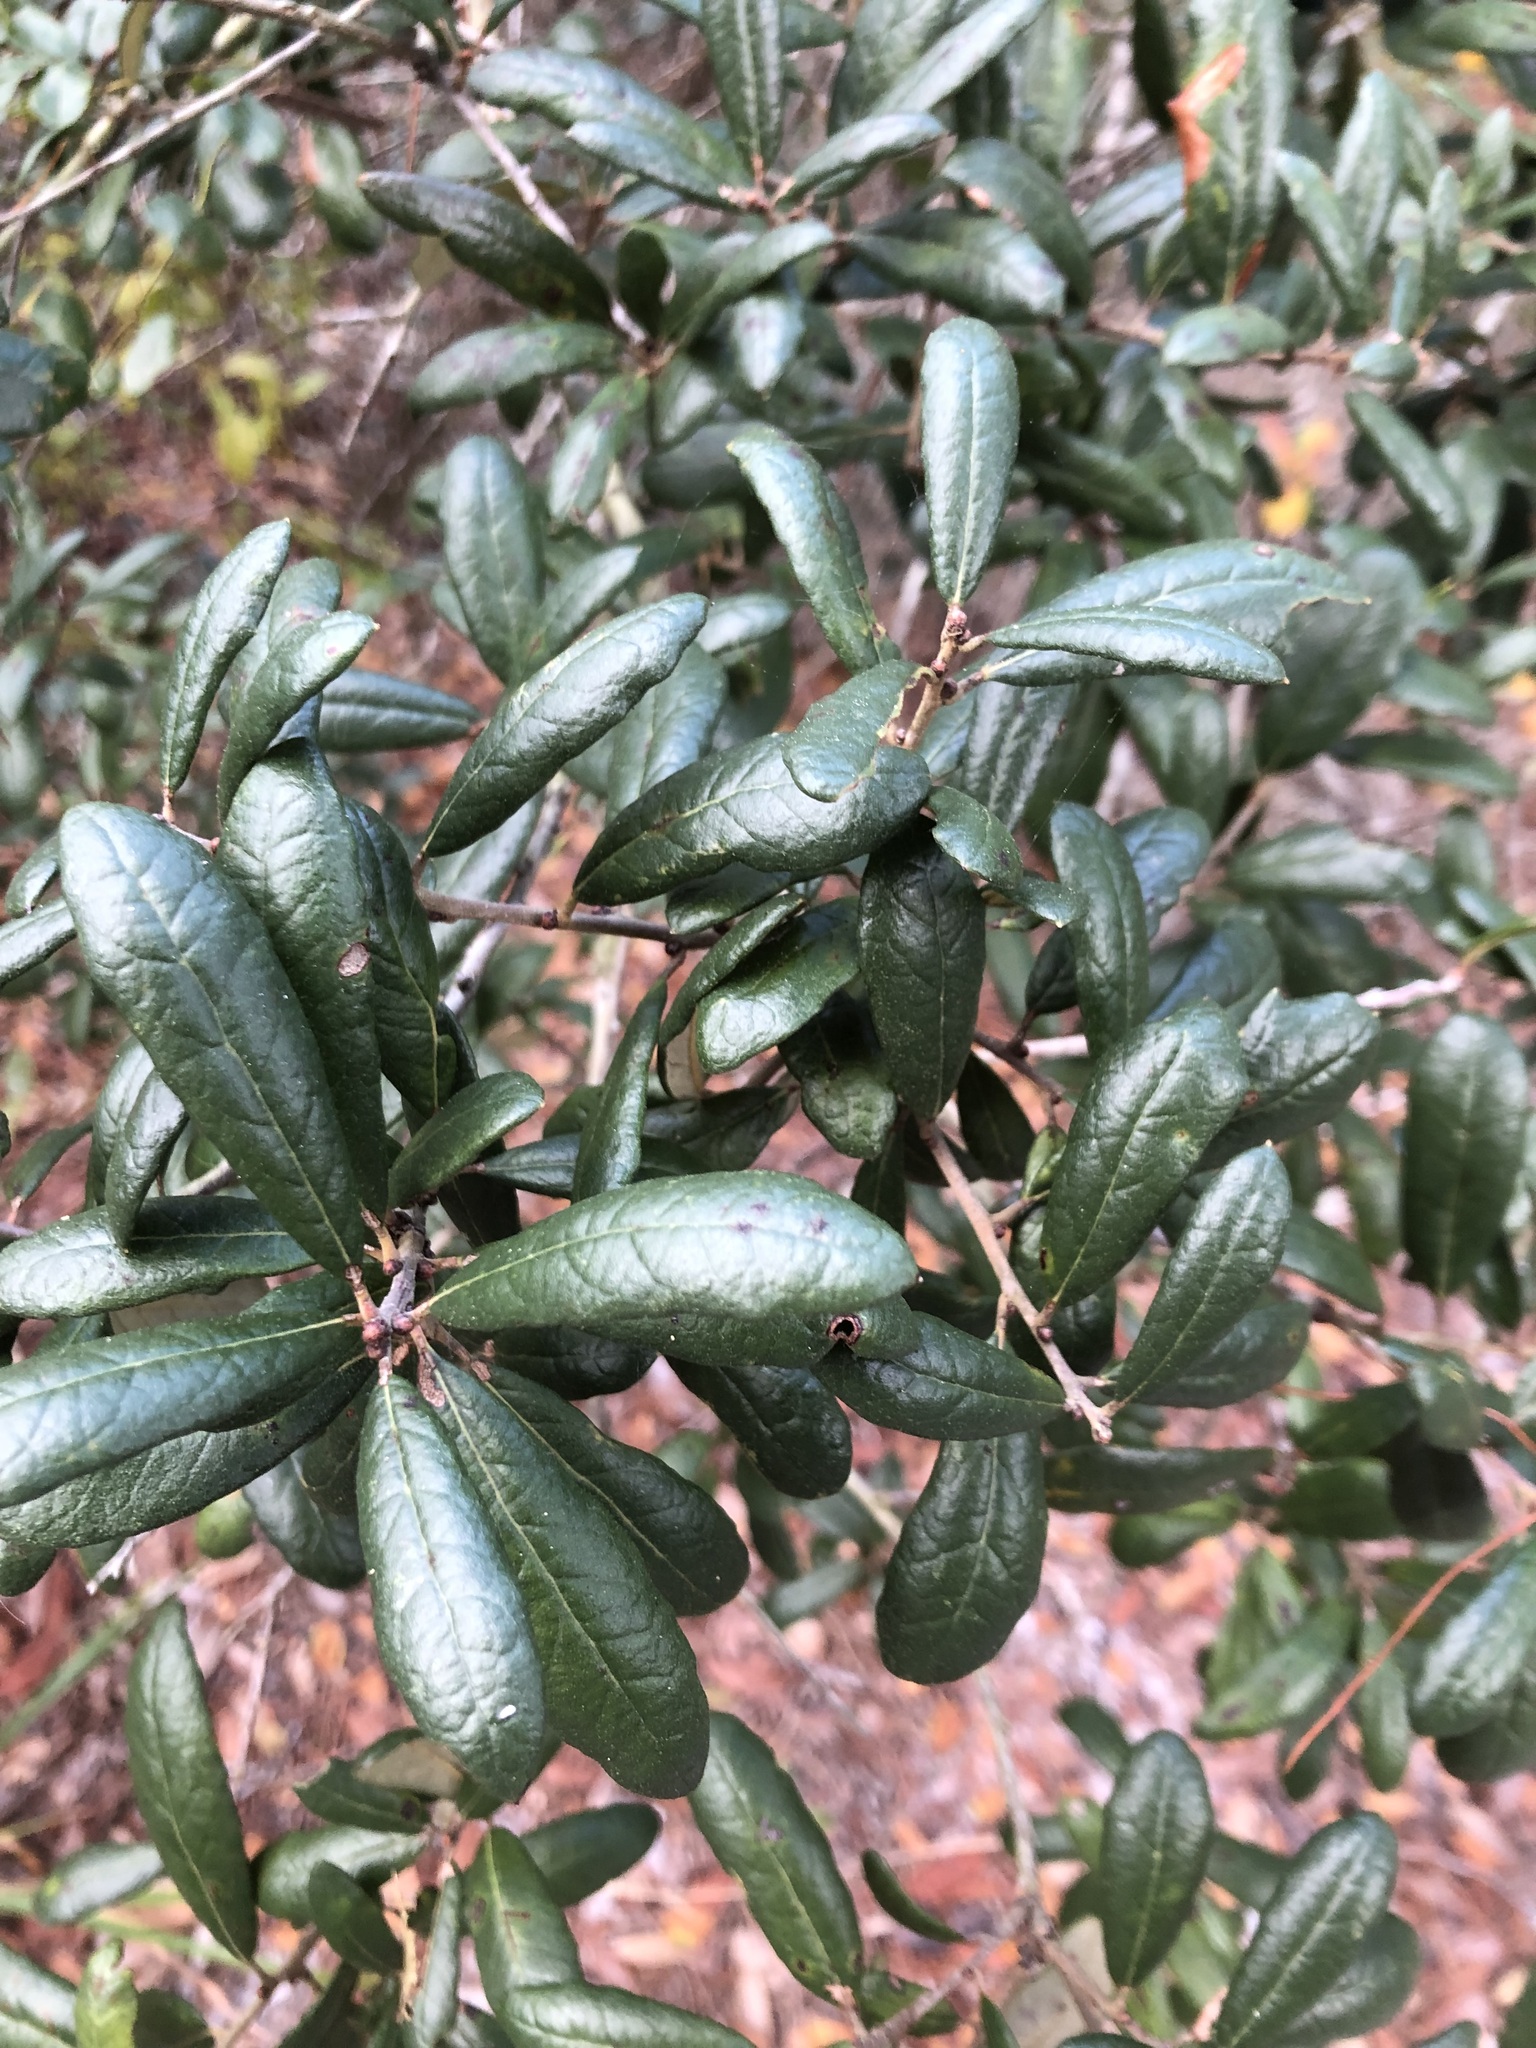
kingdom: Plantae
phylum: Tracheophyta
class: Magnoliopsida
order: Fagales
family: Fagaceae
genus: Quercus
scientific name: Quercus geminata
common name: Sand live oak
